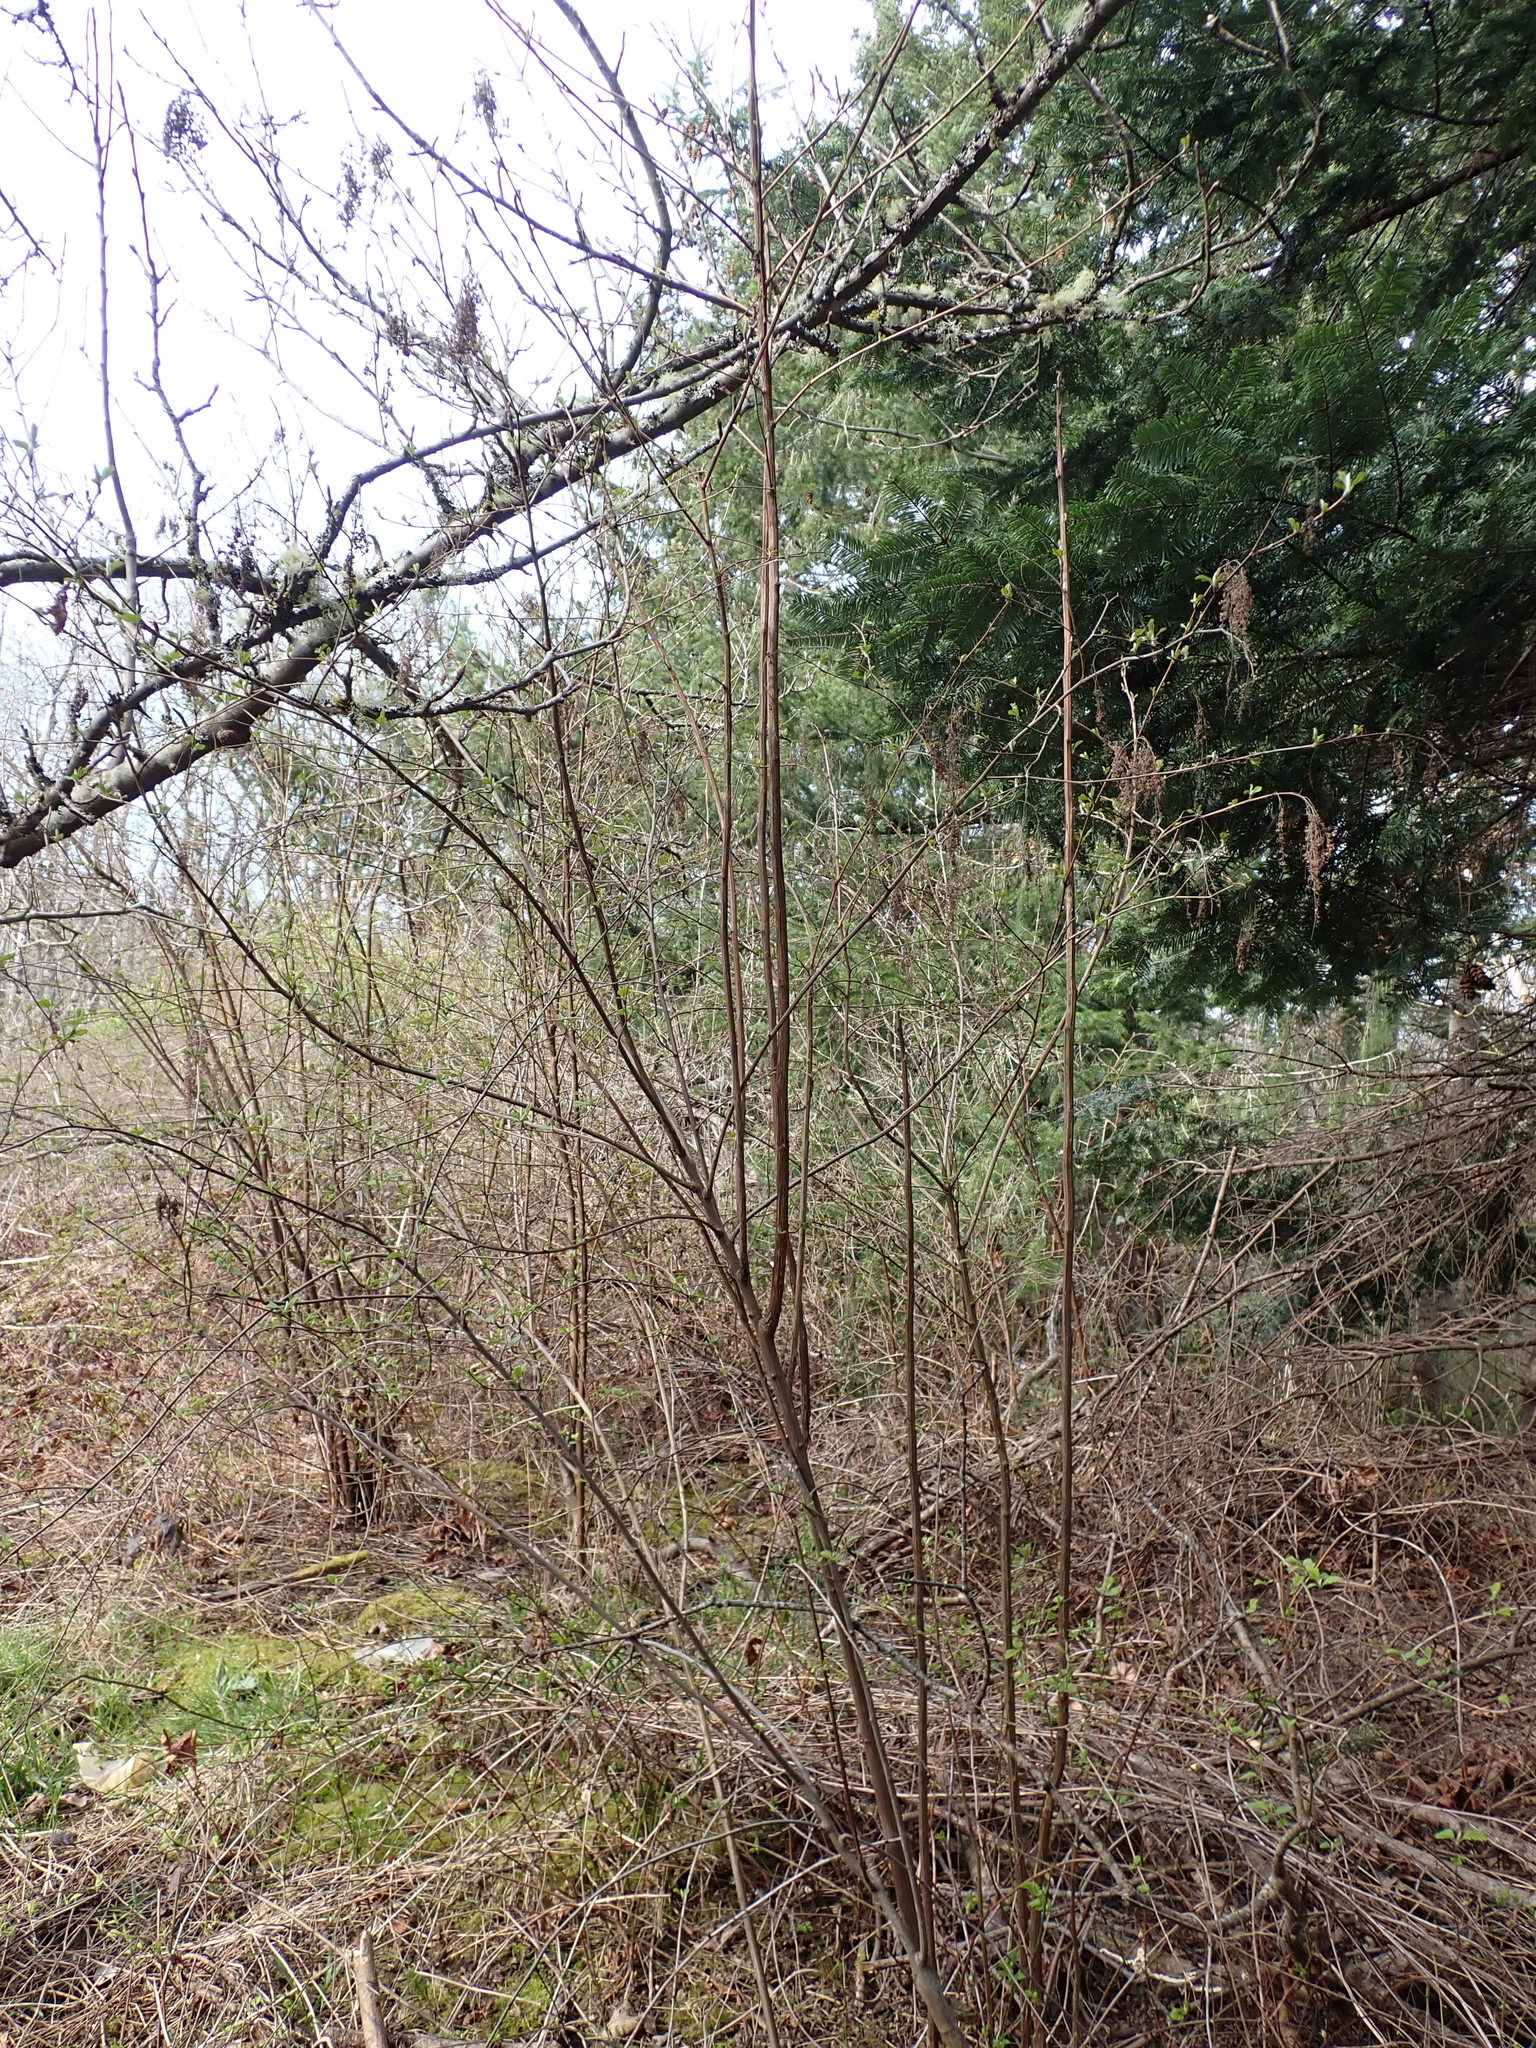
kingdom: Plantae
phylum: Tracheophyta
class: Magnoliopsida
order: Rosales
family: Rosaceae
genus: Holodiscus
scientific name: Holodiscus discolor
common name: Oceanspray
